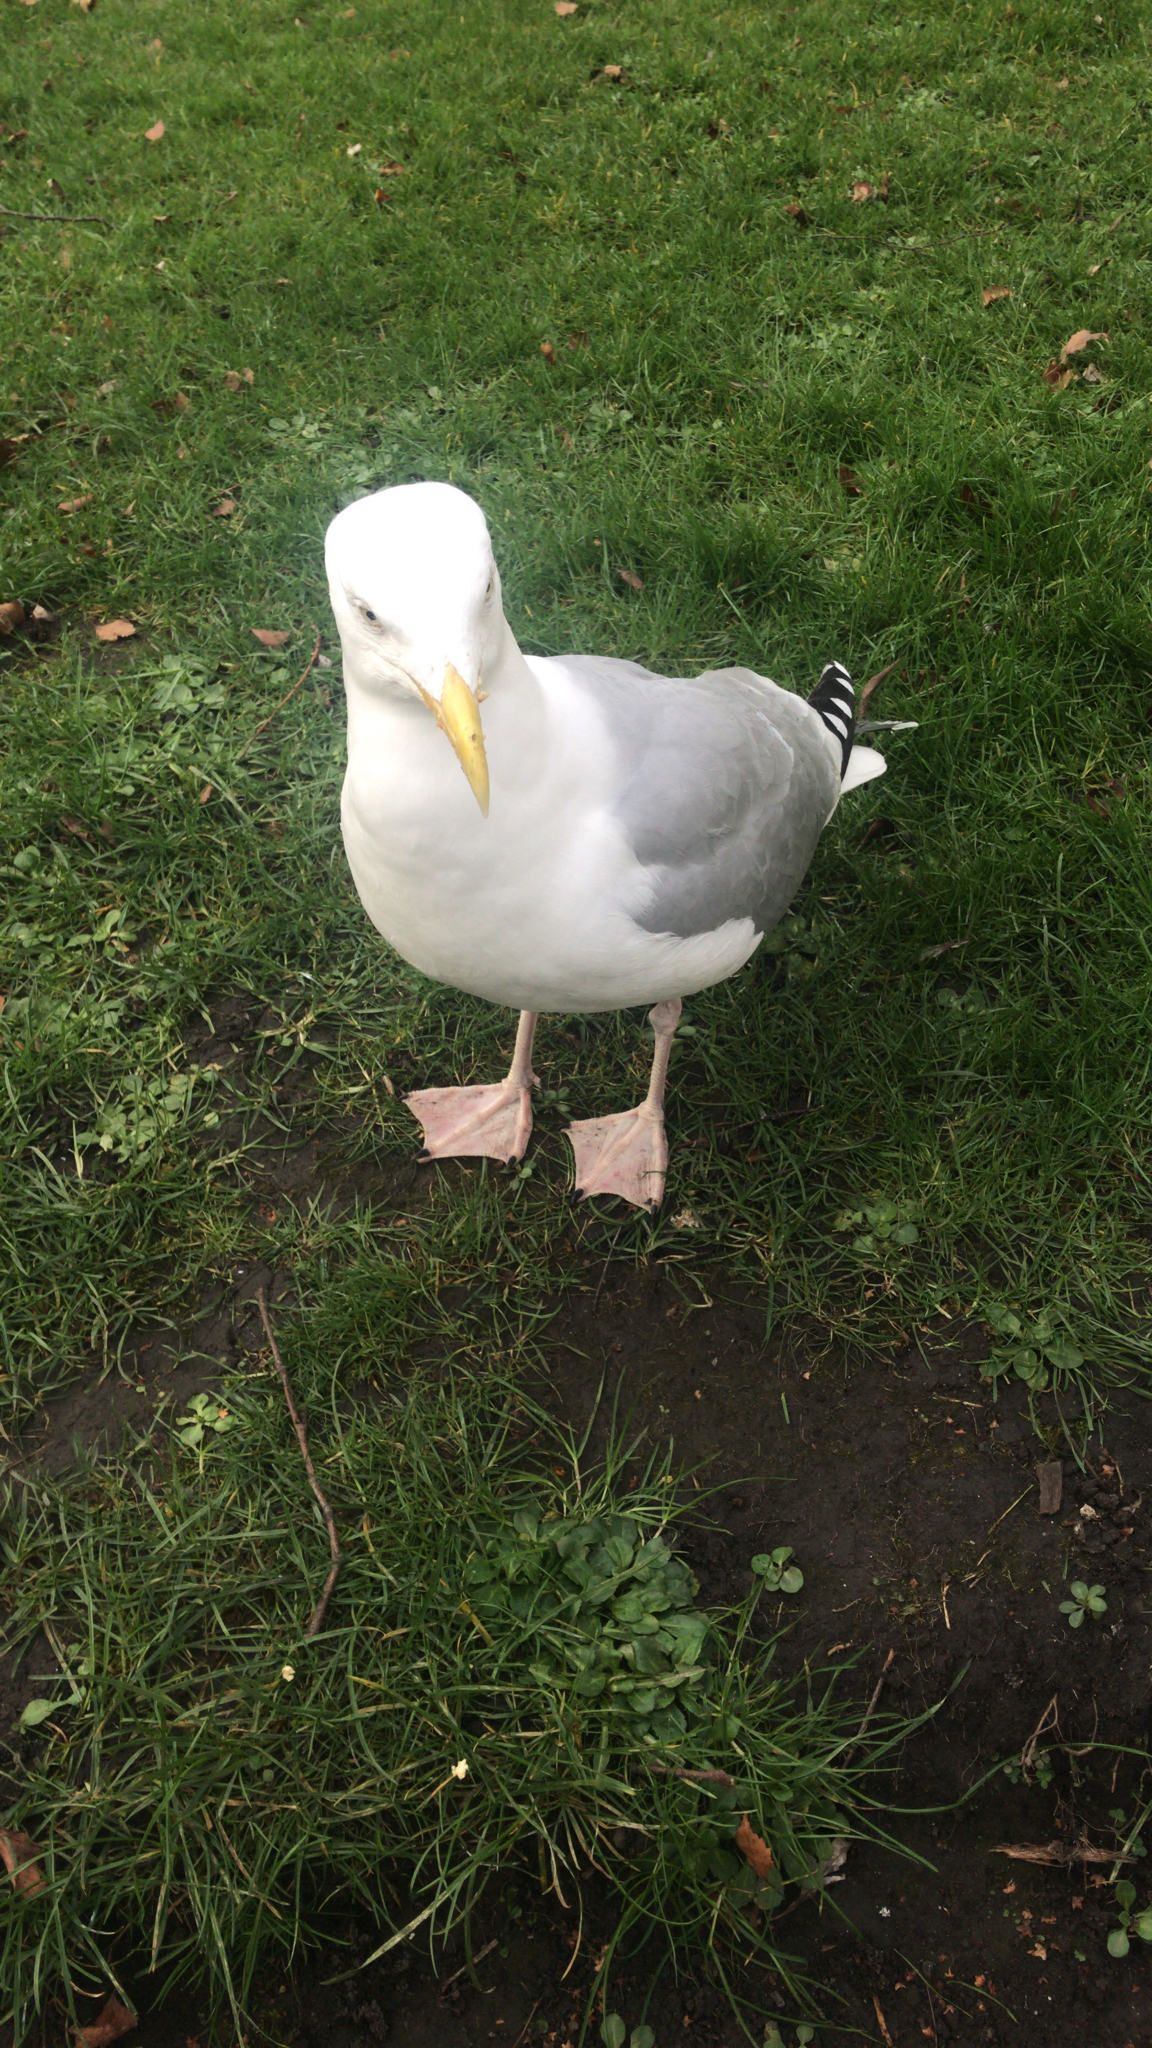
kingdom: Animalia
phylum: Chordata
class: Aves
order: Charadriiformes
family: Laridae
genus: Larus
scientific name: Larus argentatus
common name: Herring gull
